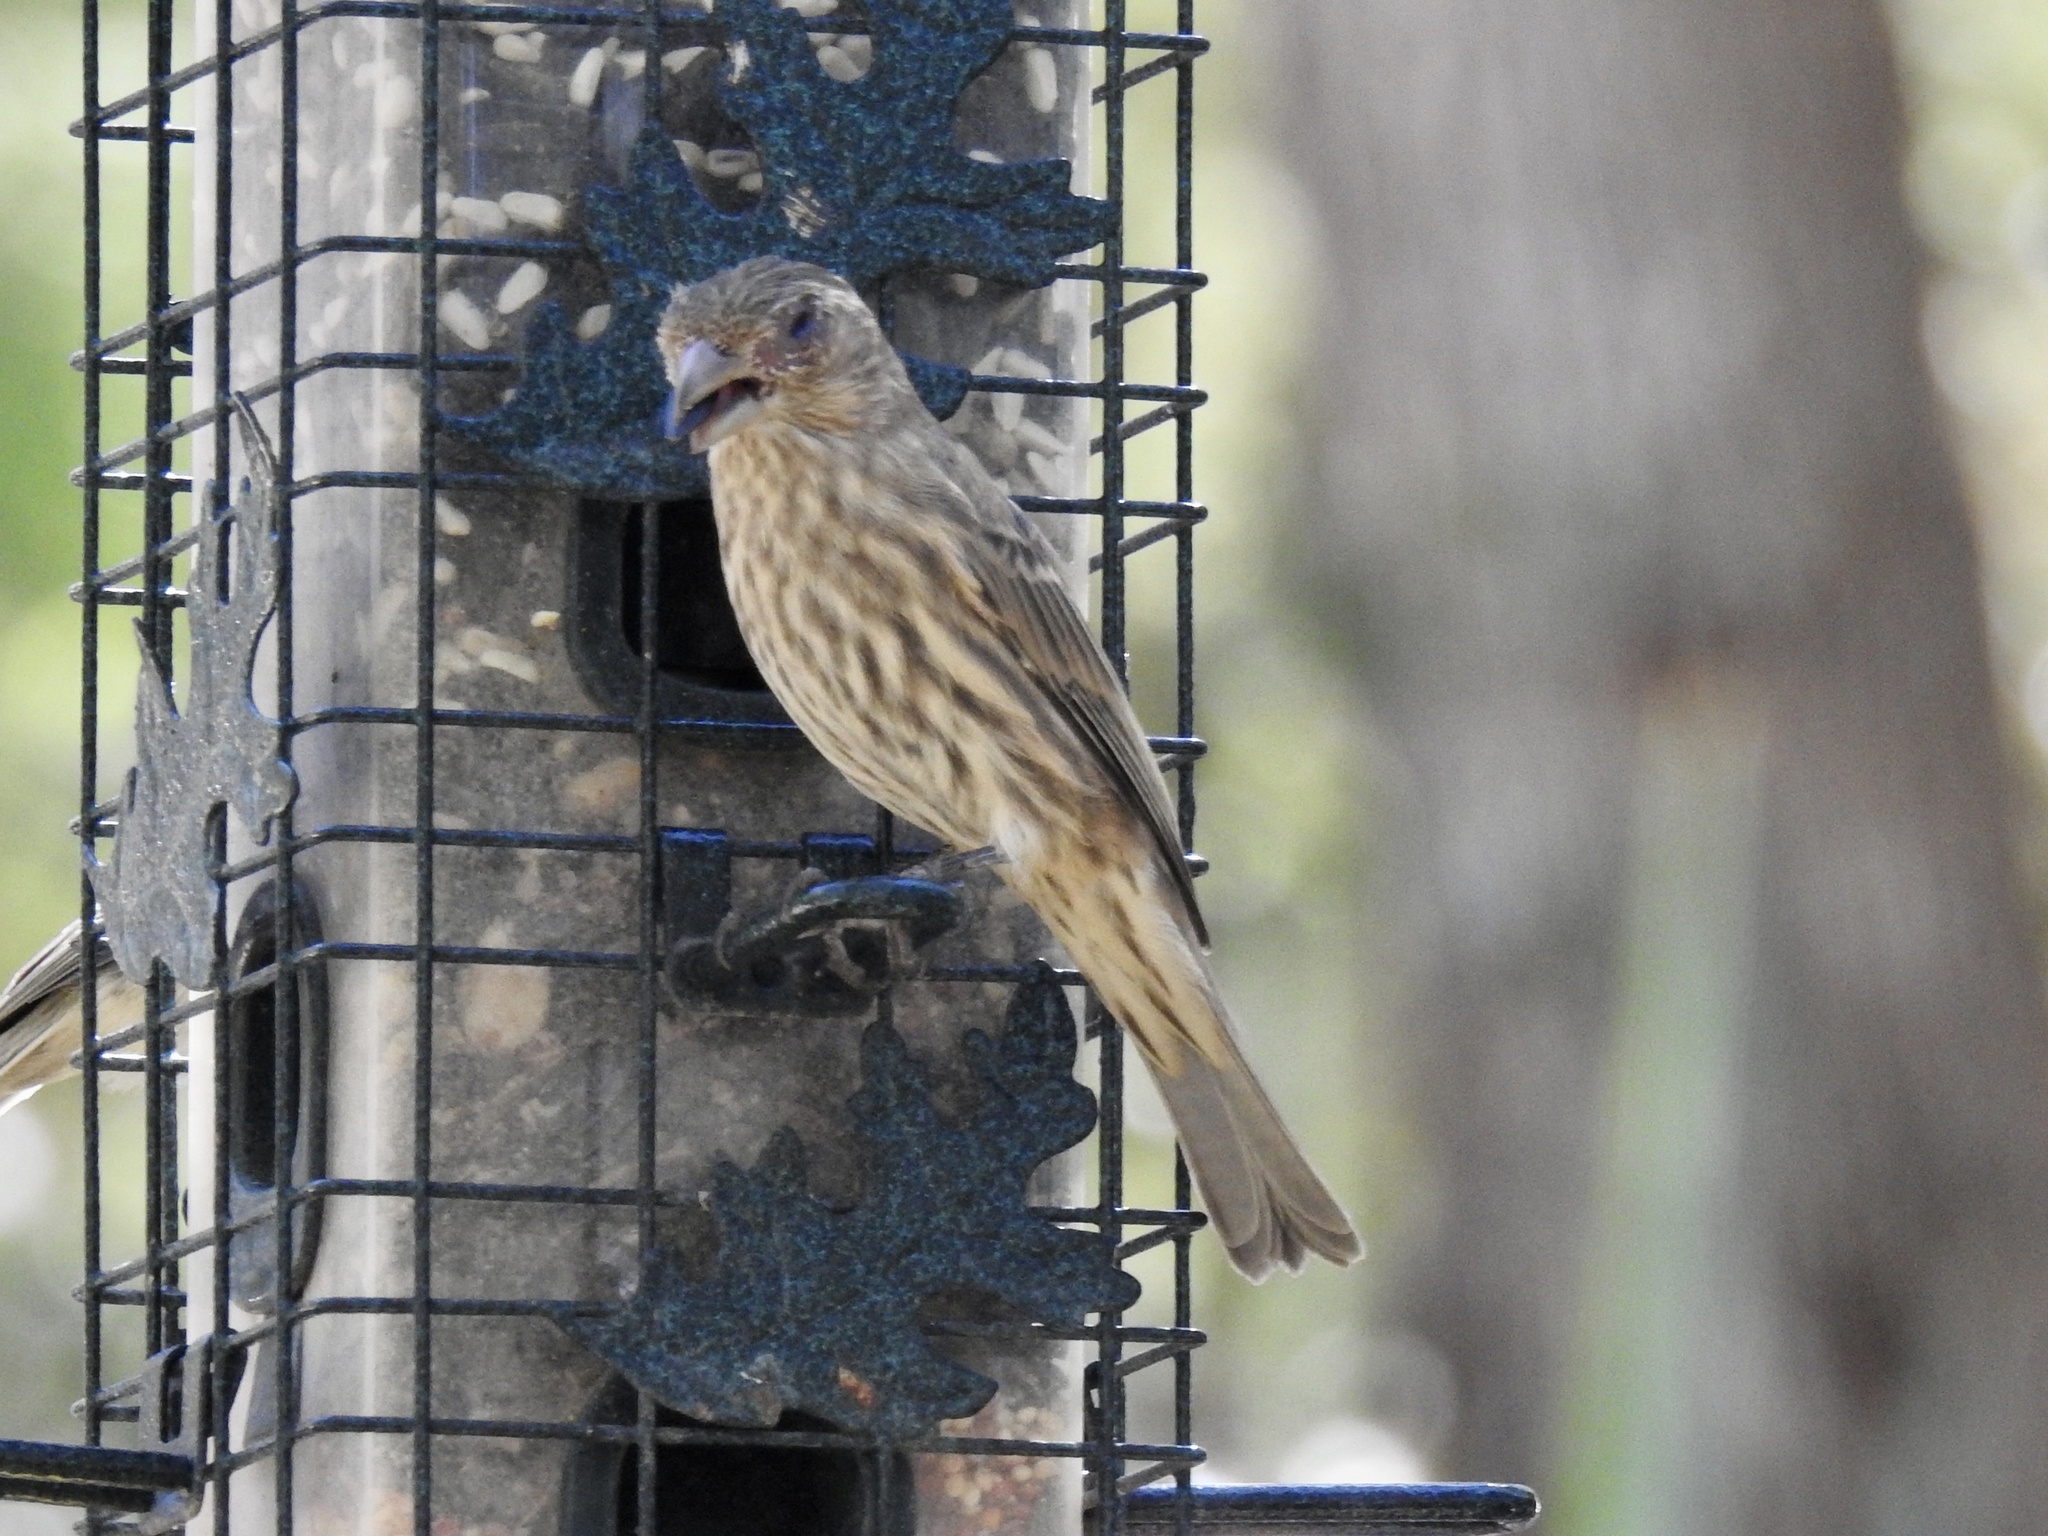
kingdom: Animalia
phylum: Chordata
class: Aves
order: Passeriformes
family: Fringillidae
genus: Haemorhous
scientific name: Haemorhous mexicanus
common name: House finch
